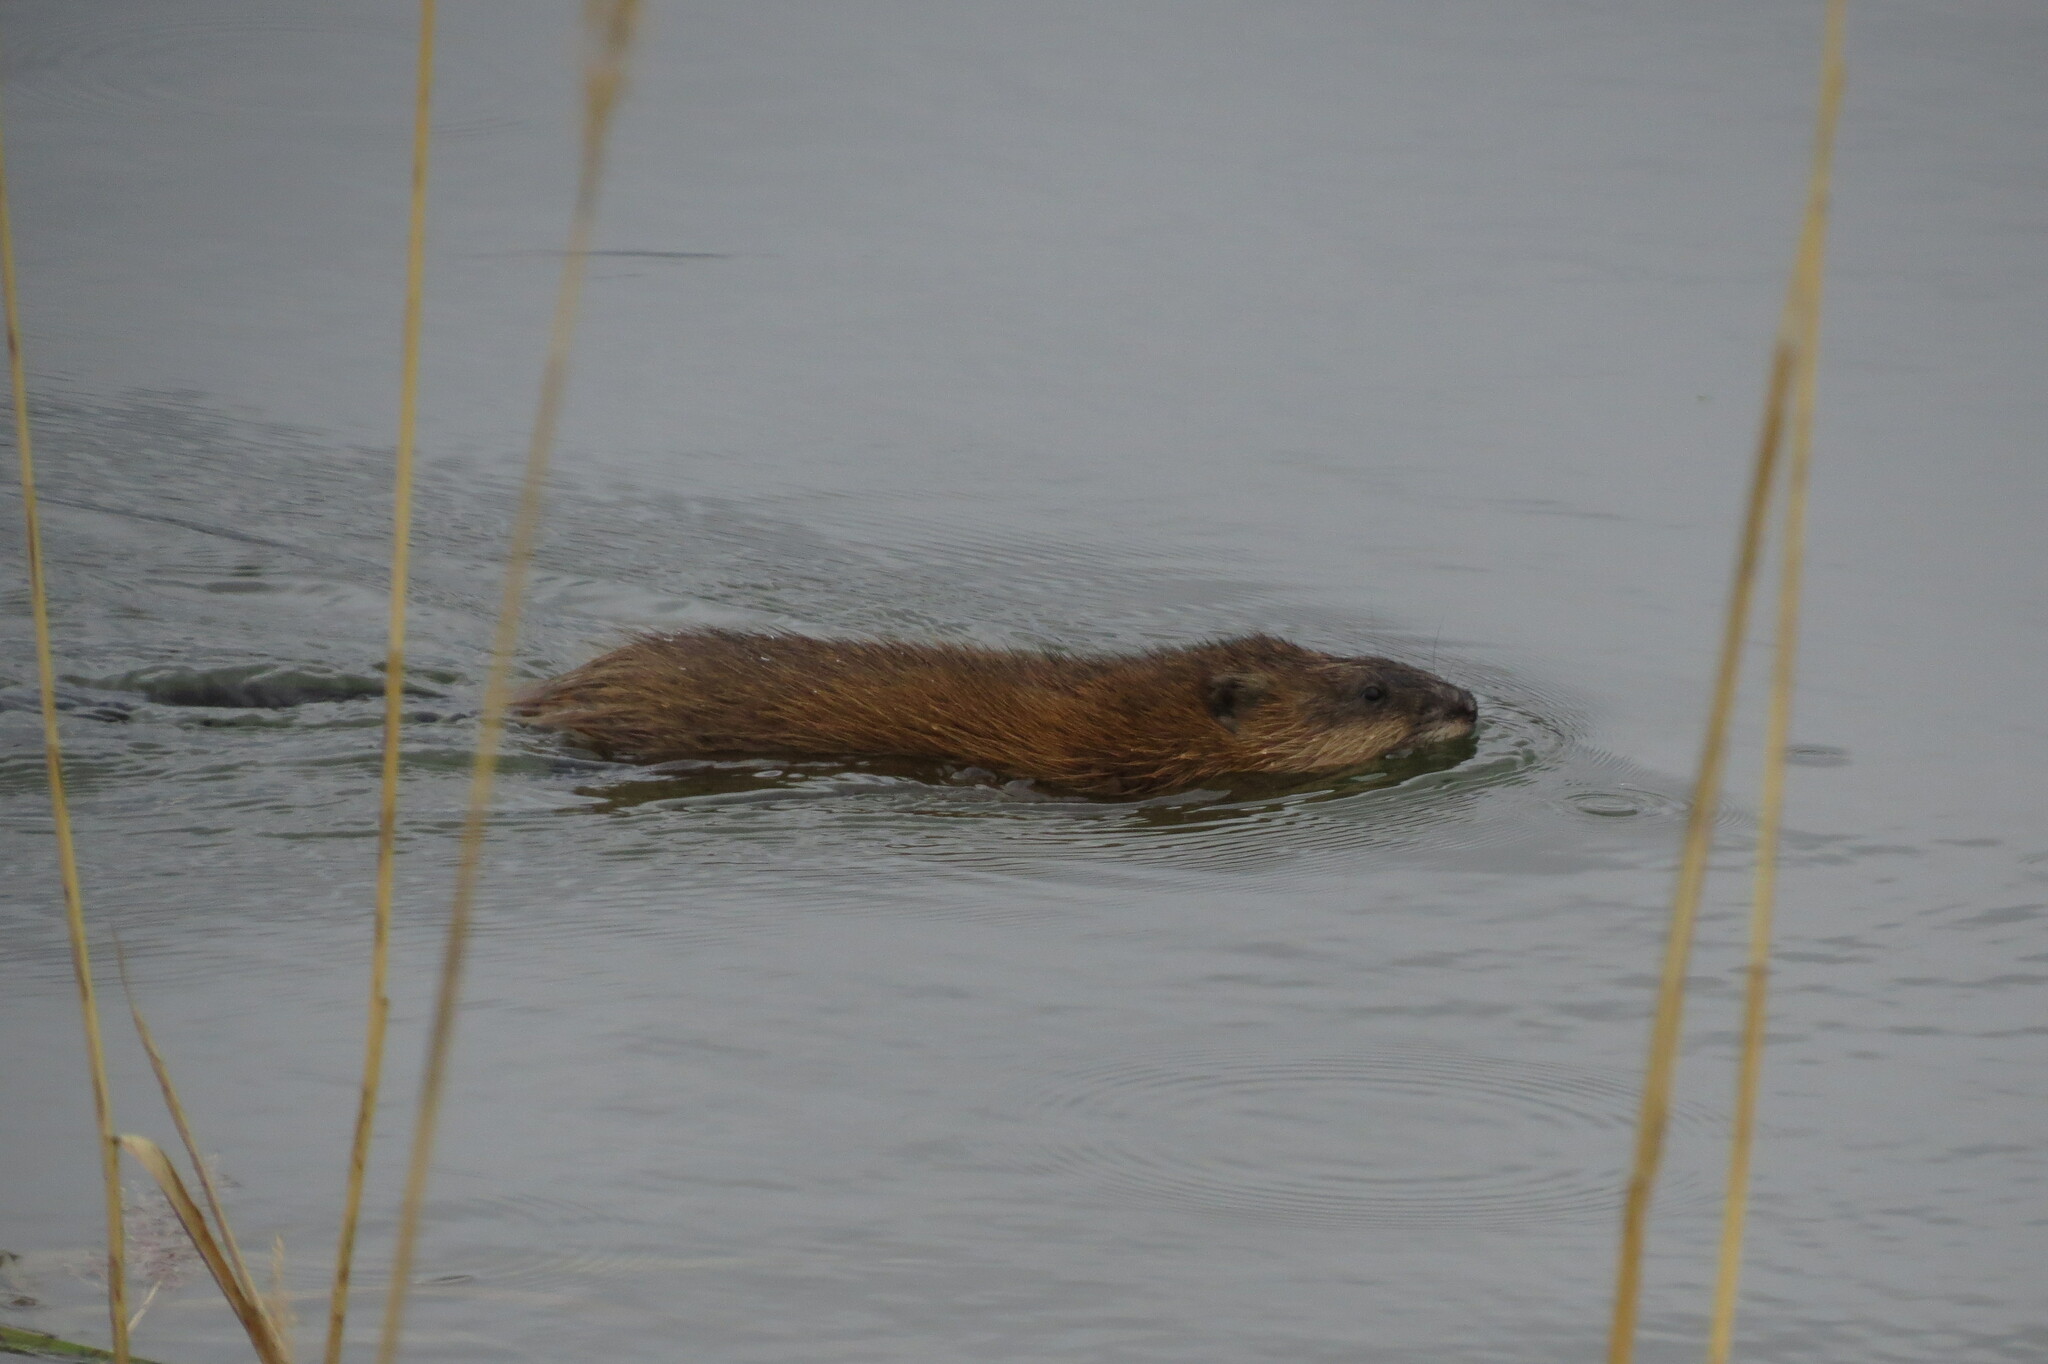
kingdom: Animalia
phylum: Chordata
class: Mammalia
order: Rodentia
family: Cricetidae
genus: Ondatra
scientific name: Ondatra zibethicus
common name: Muskrat
